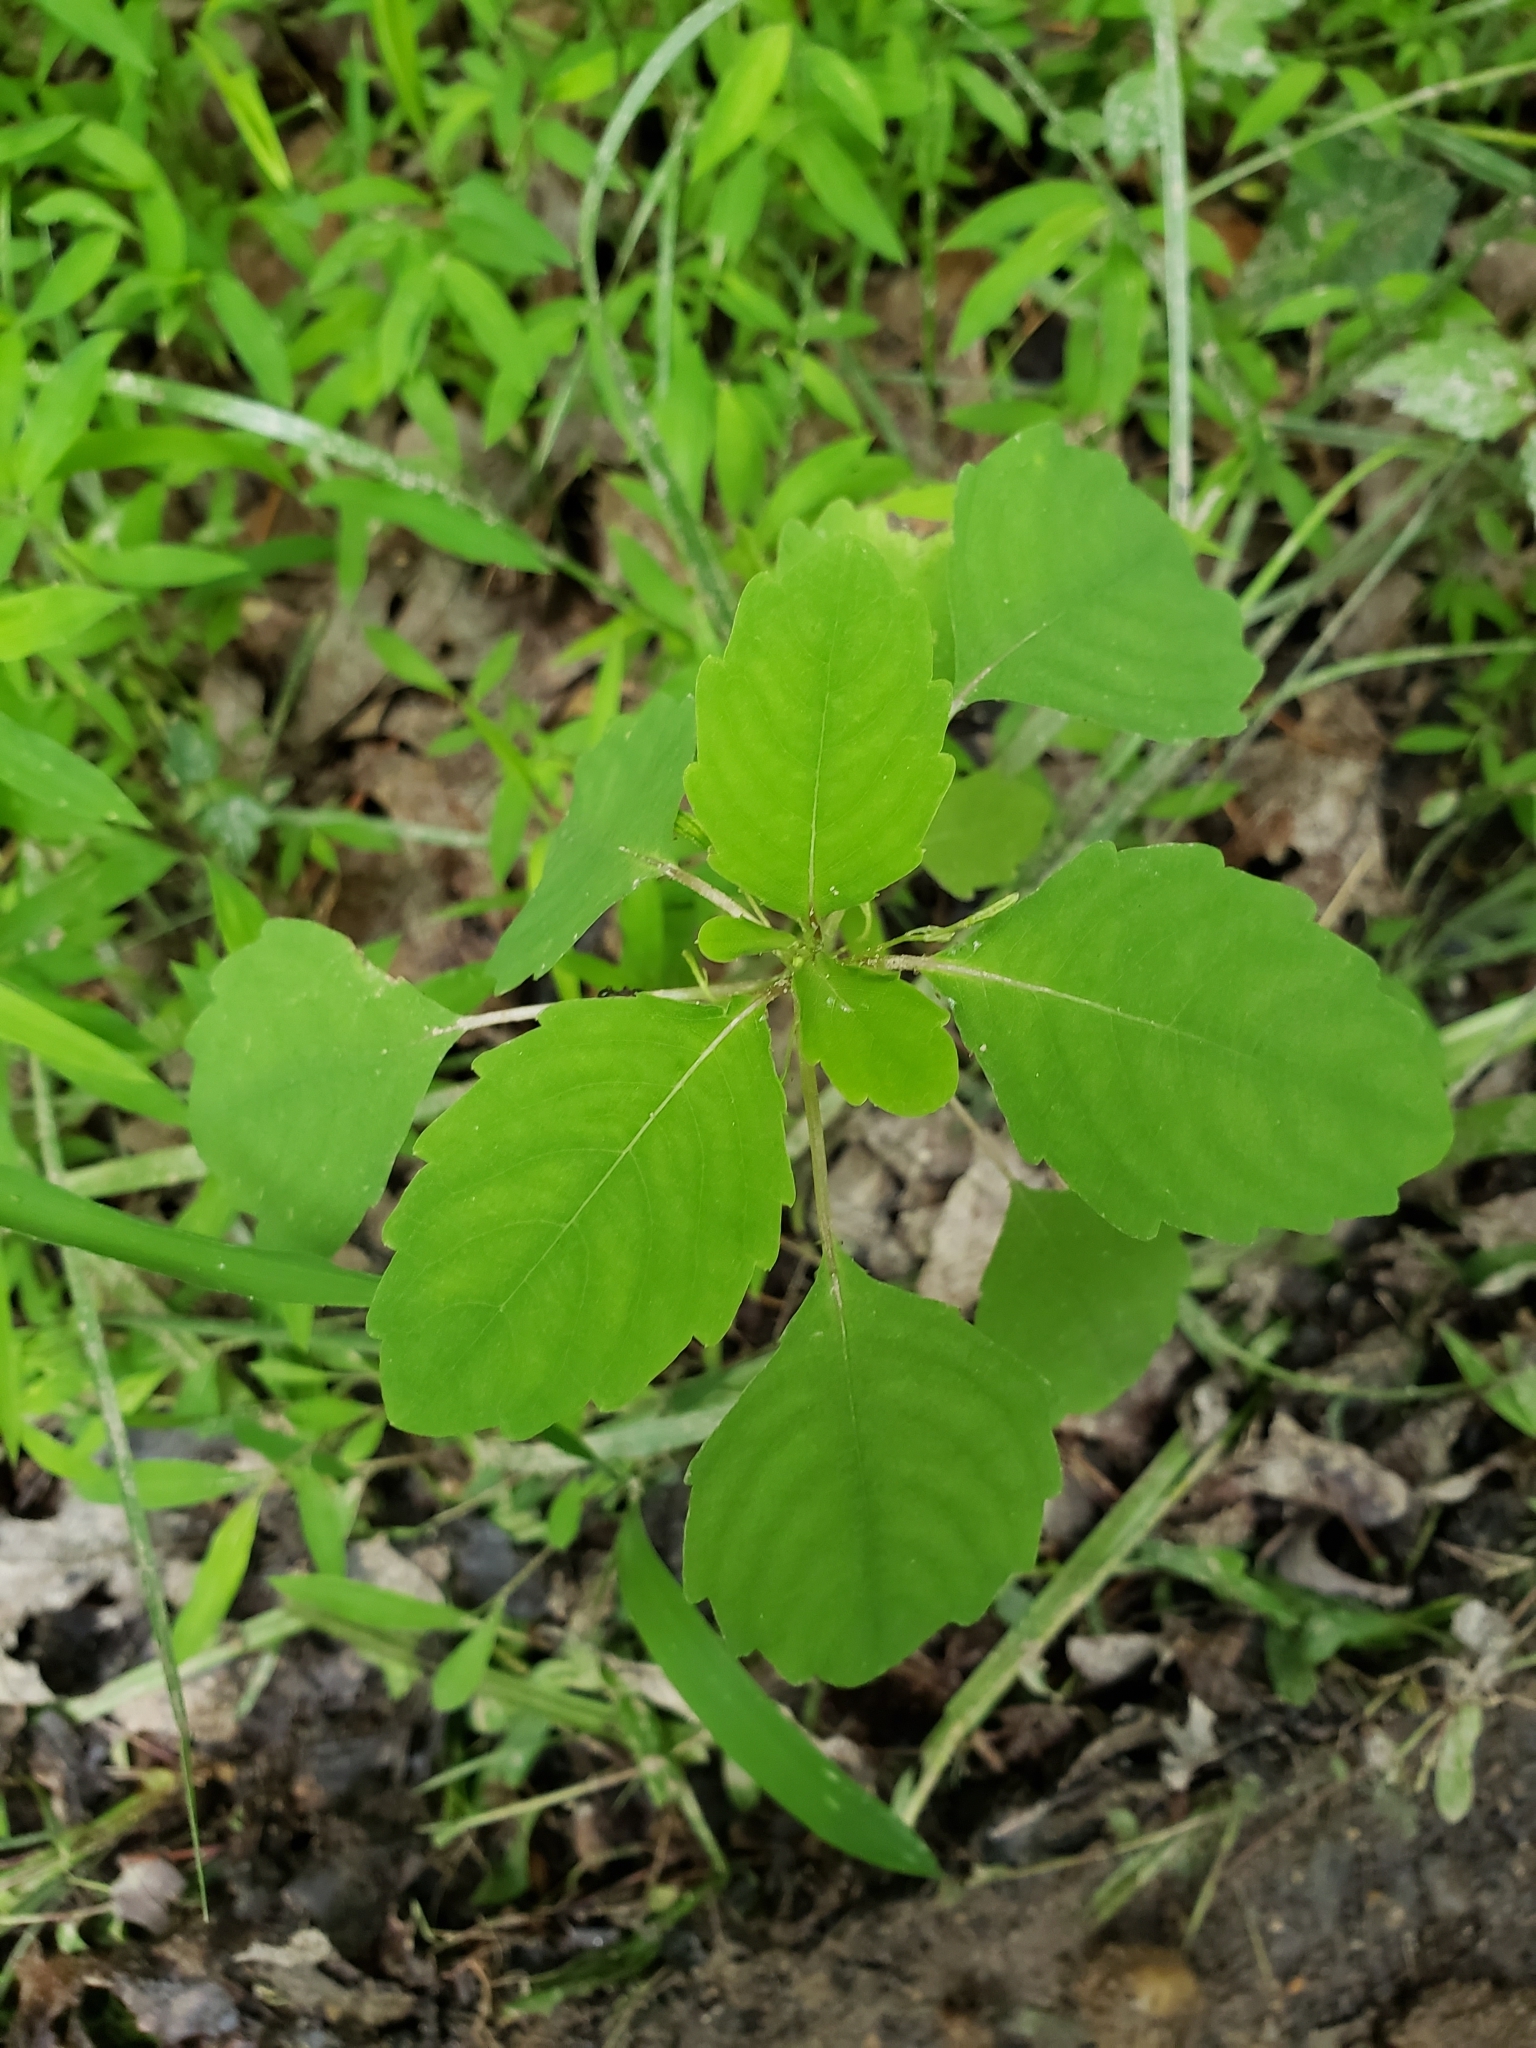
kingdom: Plantae
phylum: Tracheophyta
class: Magnoliopsida
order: Ericales
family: Balsaminaceae
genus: Impatiens
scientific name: Impatiens capensis
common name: Orange balsam
